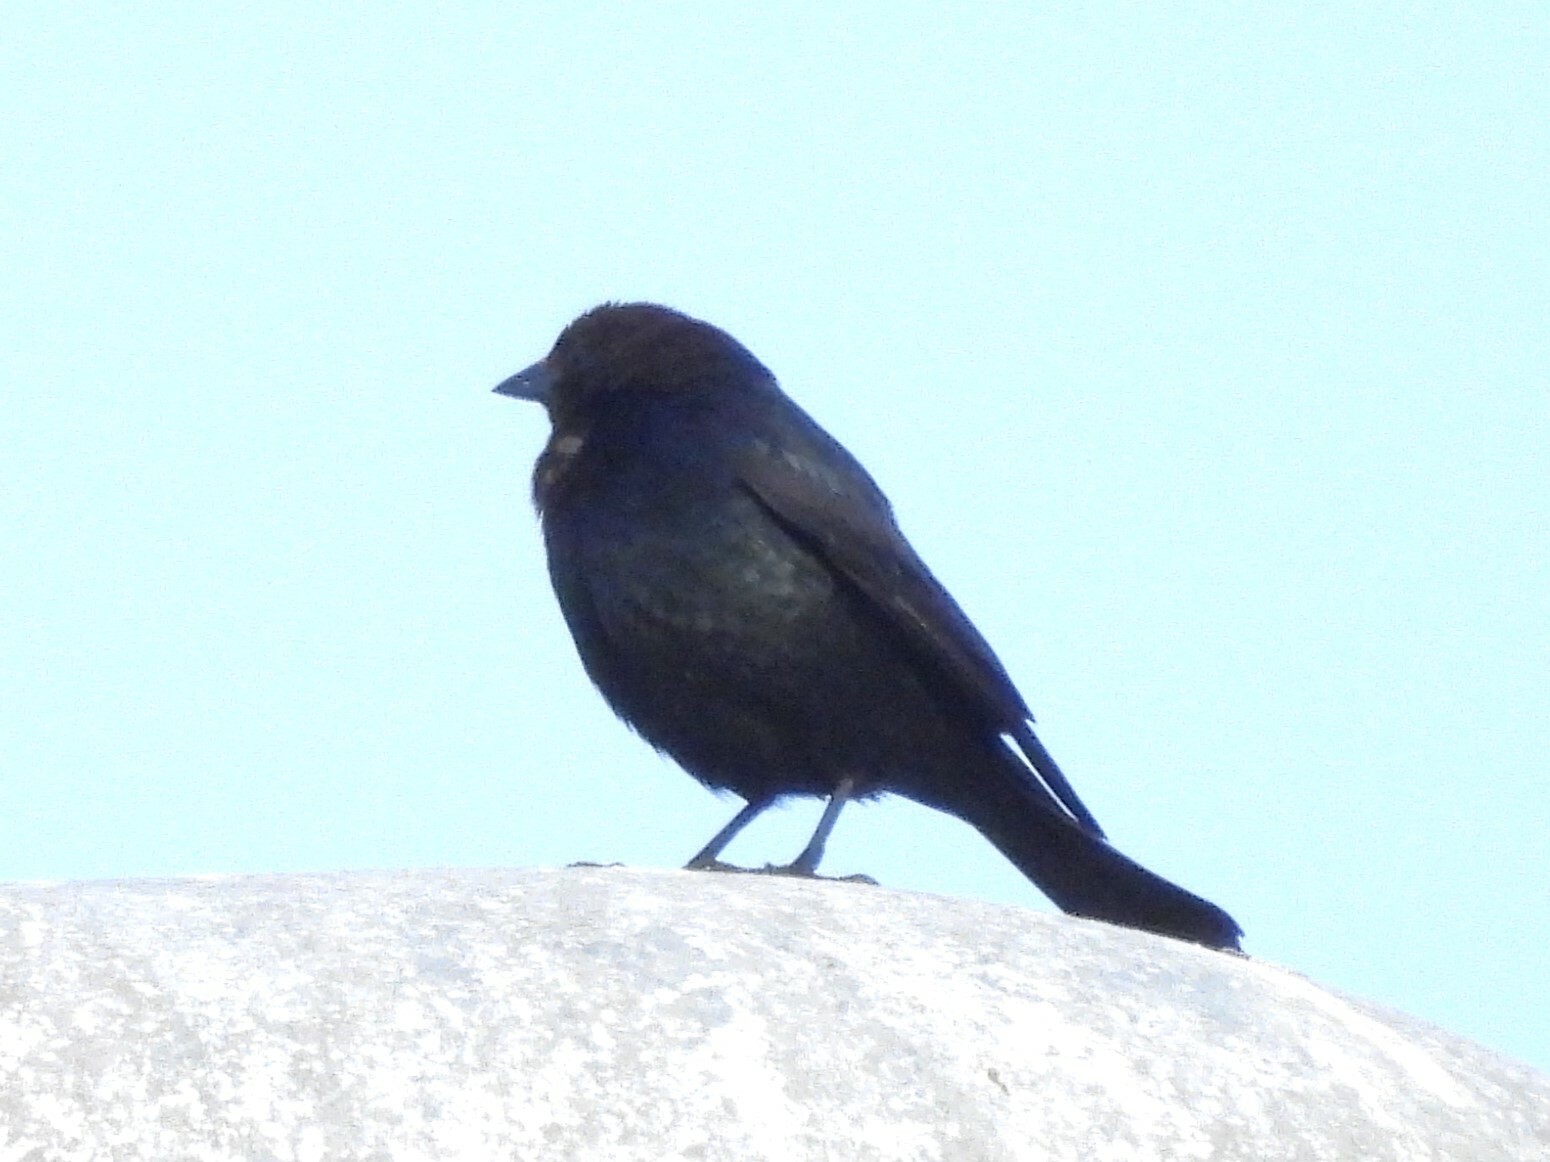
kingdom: Animalia
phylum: Chordata
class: Aves
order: Passeriformes
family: Icteridae
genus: Molothrus
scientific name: Molothrus ater
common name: Brown-headed cowbird
